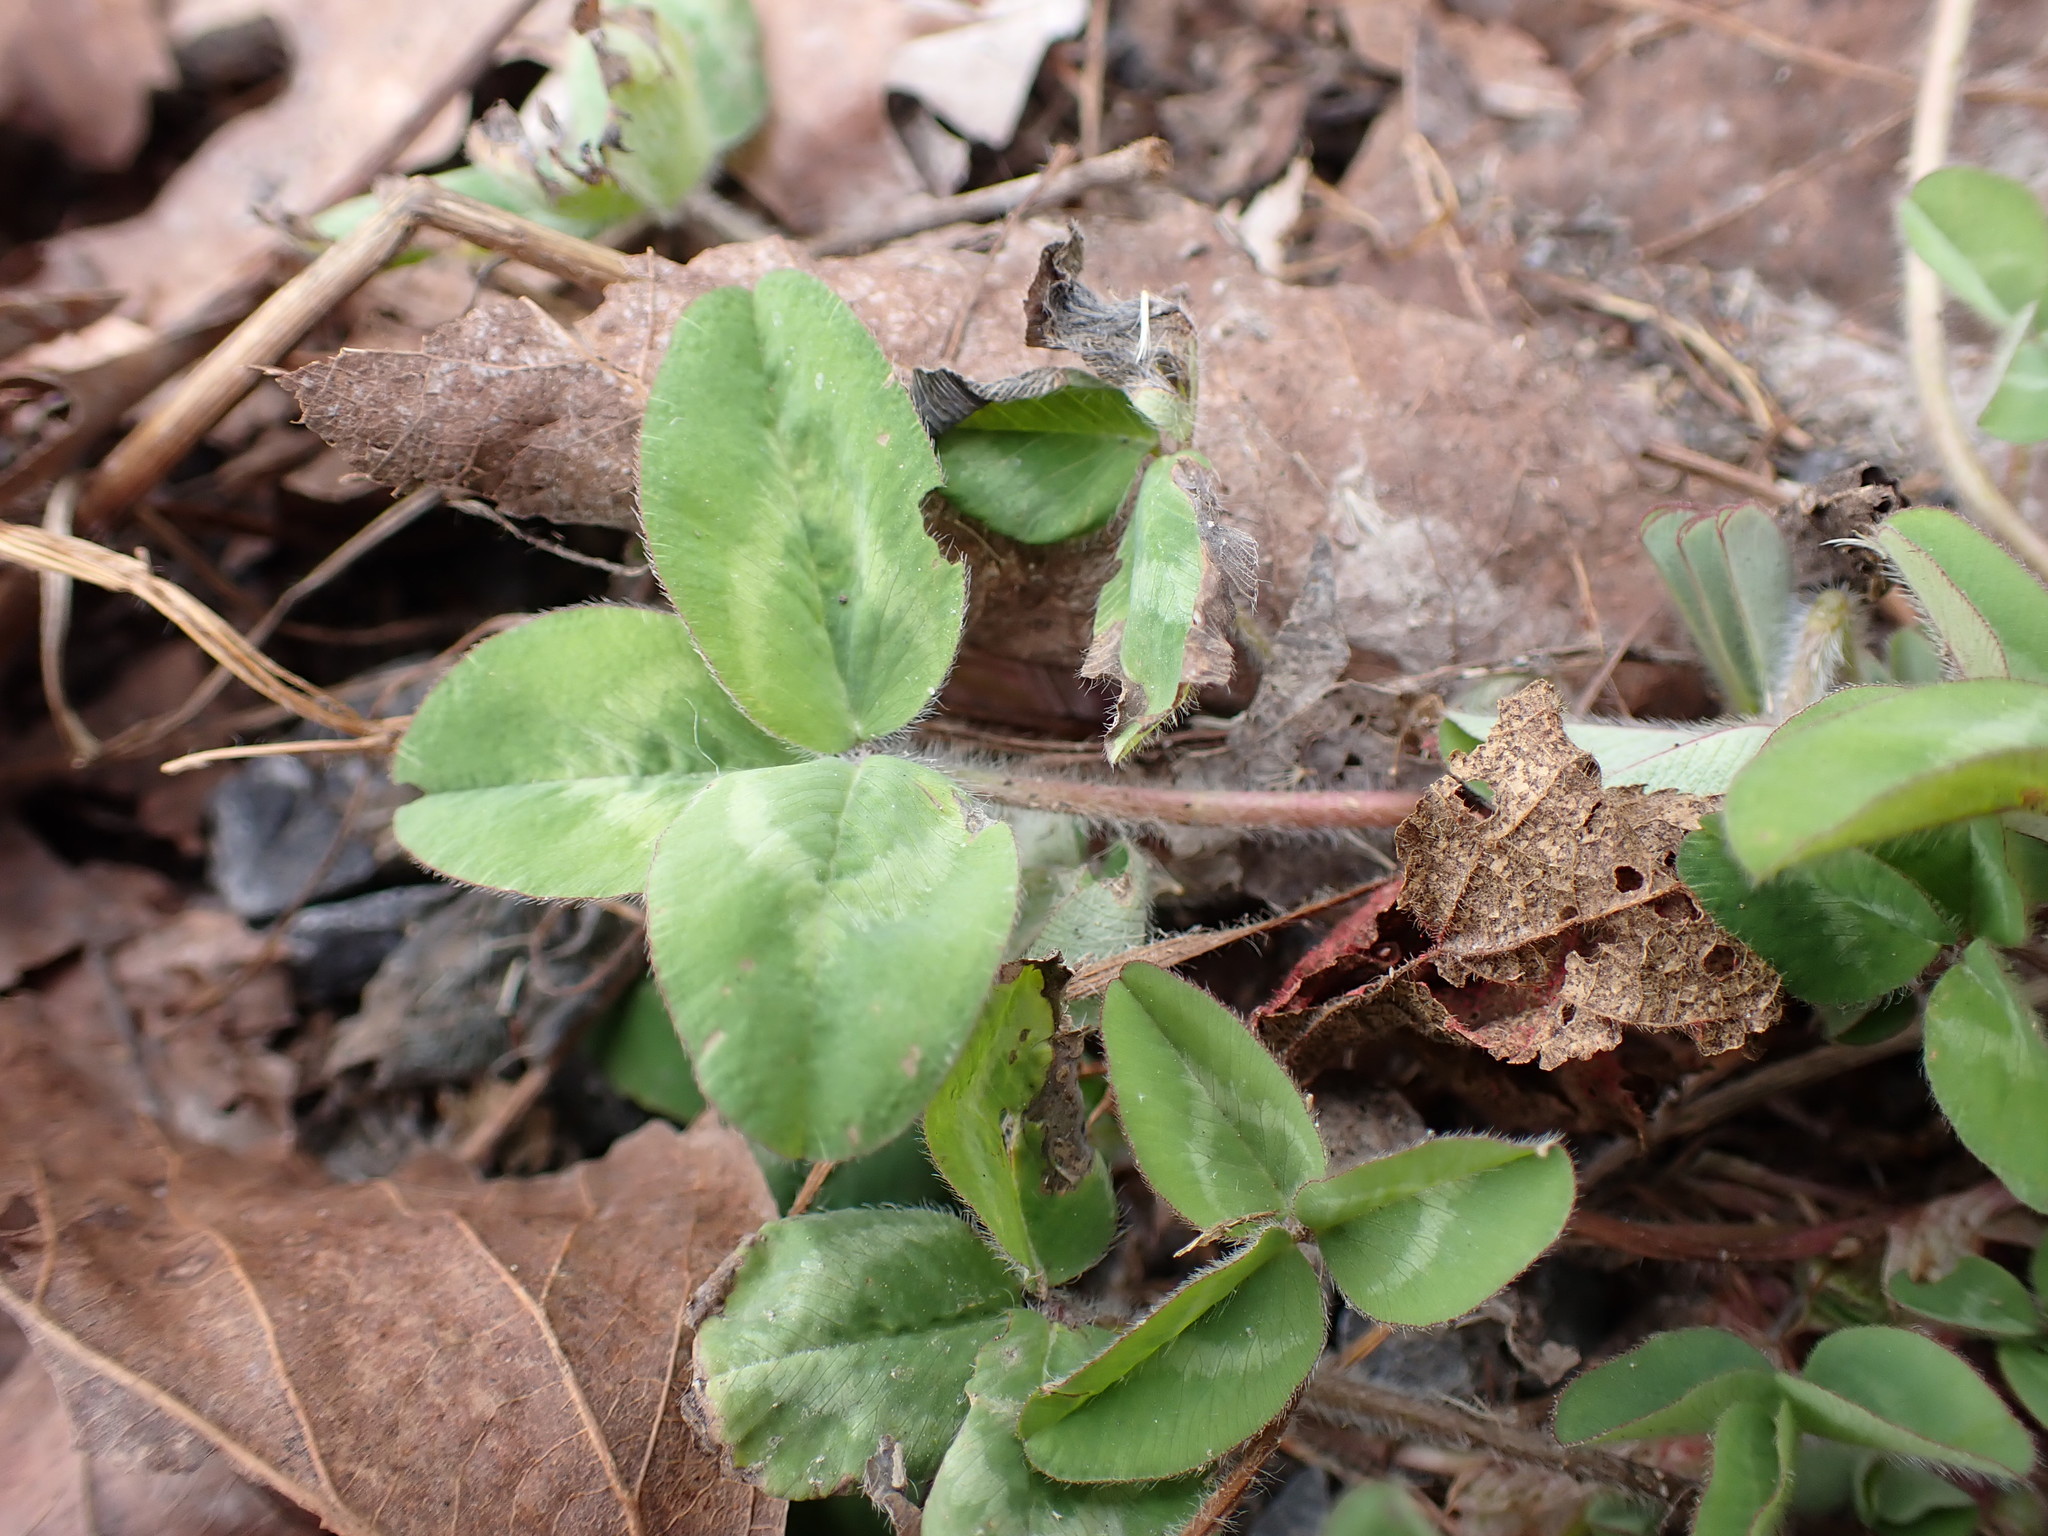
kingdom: Plantae
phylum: Tracheophyta
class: Magnoliopsida
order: Fabales
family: Fabaceae
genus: Trifolium
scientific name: Trifolium pratense
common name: Red clover
